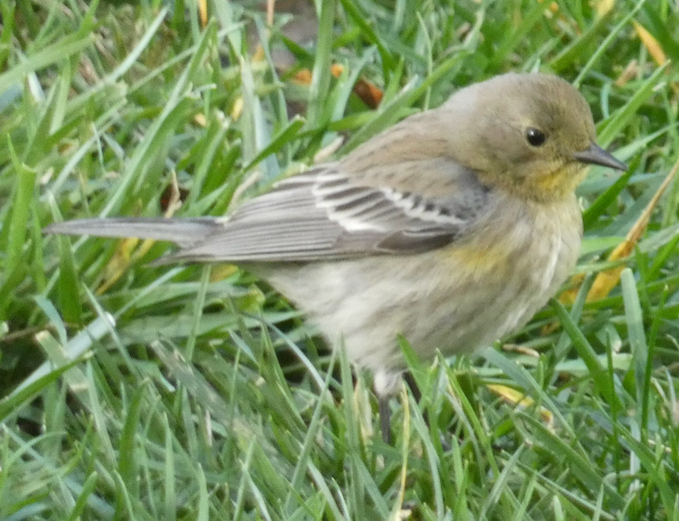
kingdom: Animalia
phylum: Chordata
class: Aves
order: Passeriformes
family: Parulidae
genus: Setophaga
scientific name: Setophaga coronata
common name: Myrtle warbler
